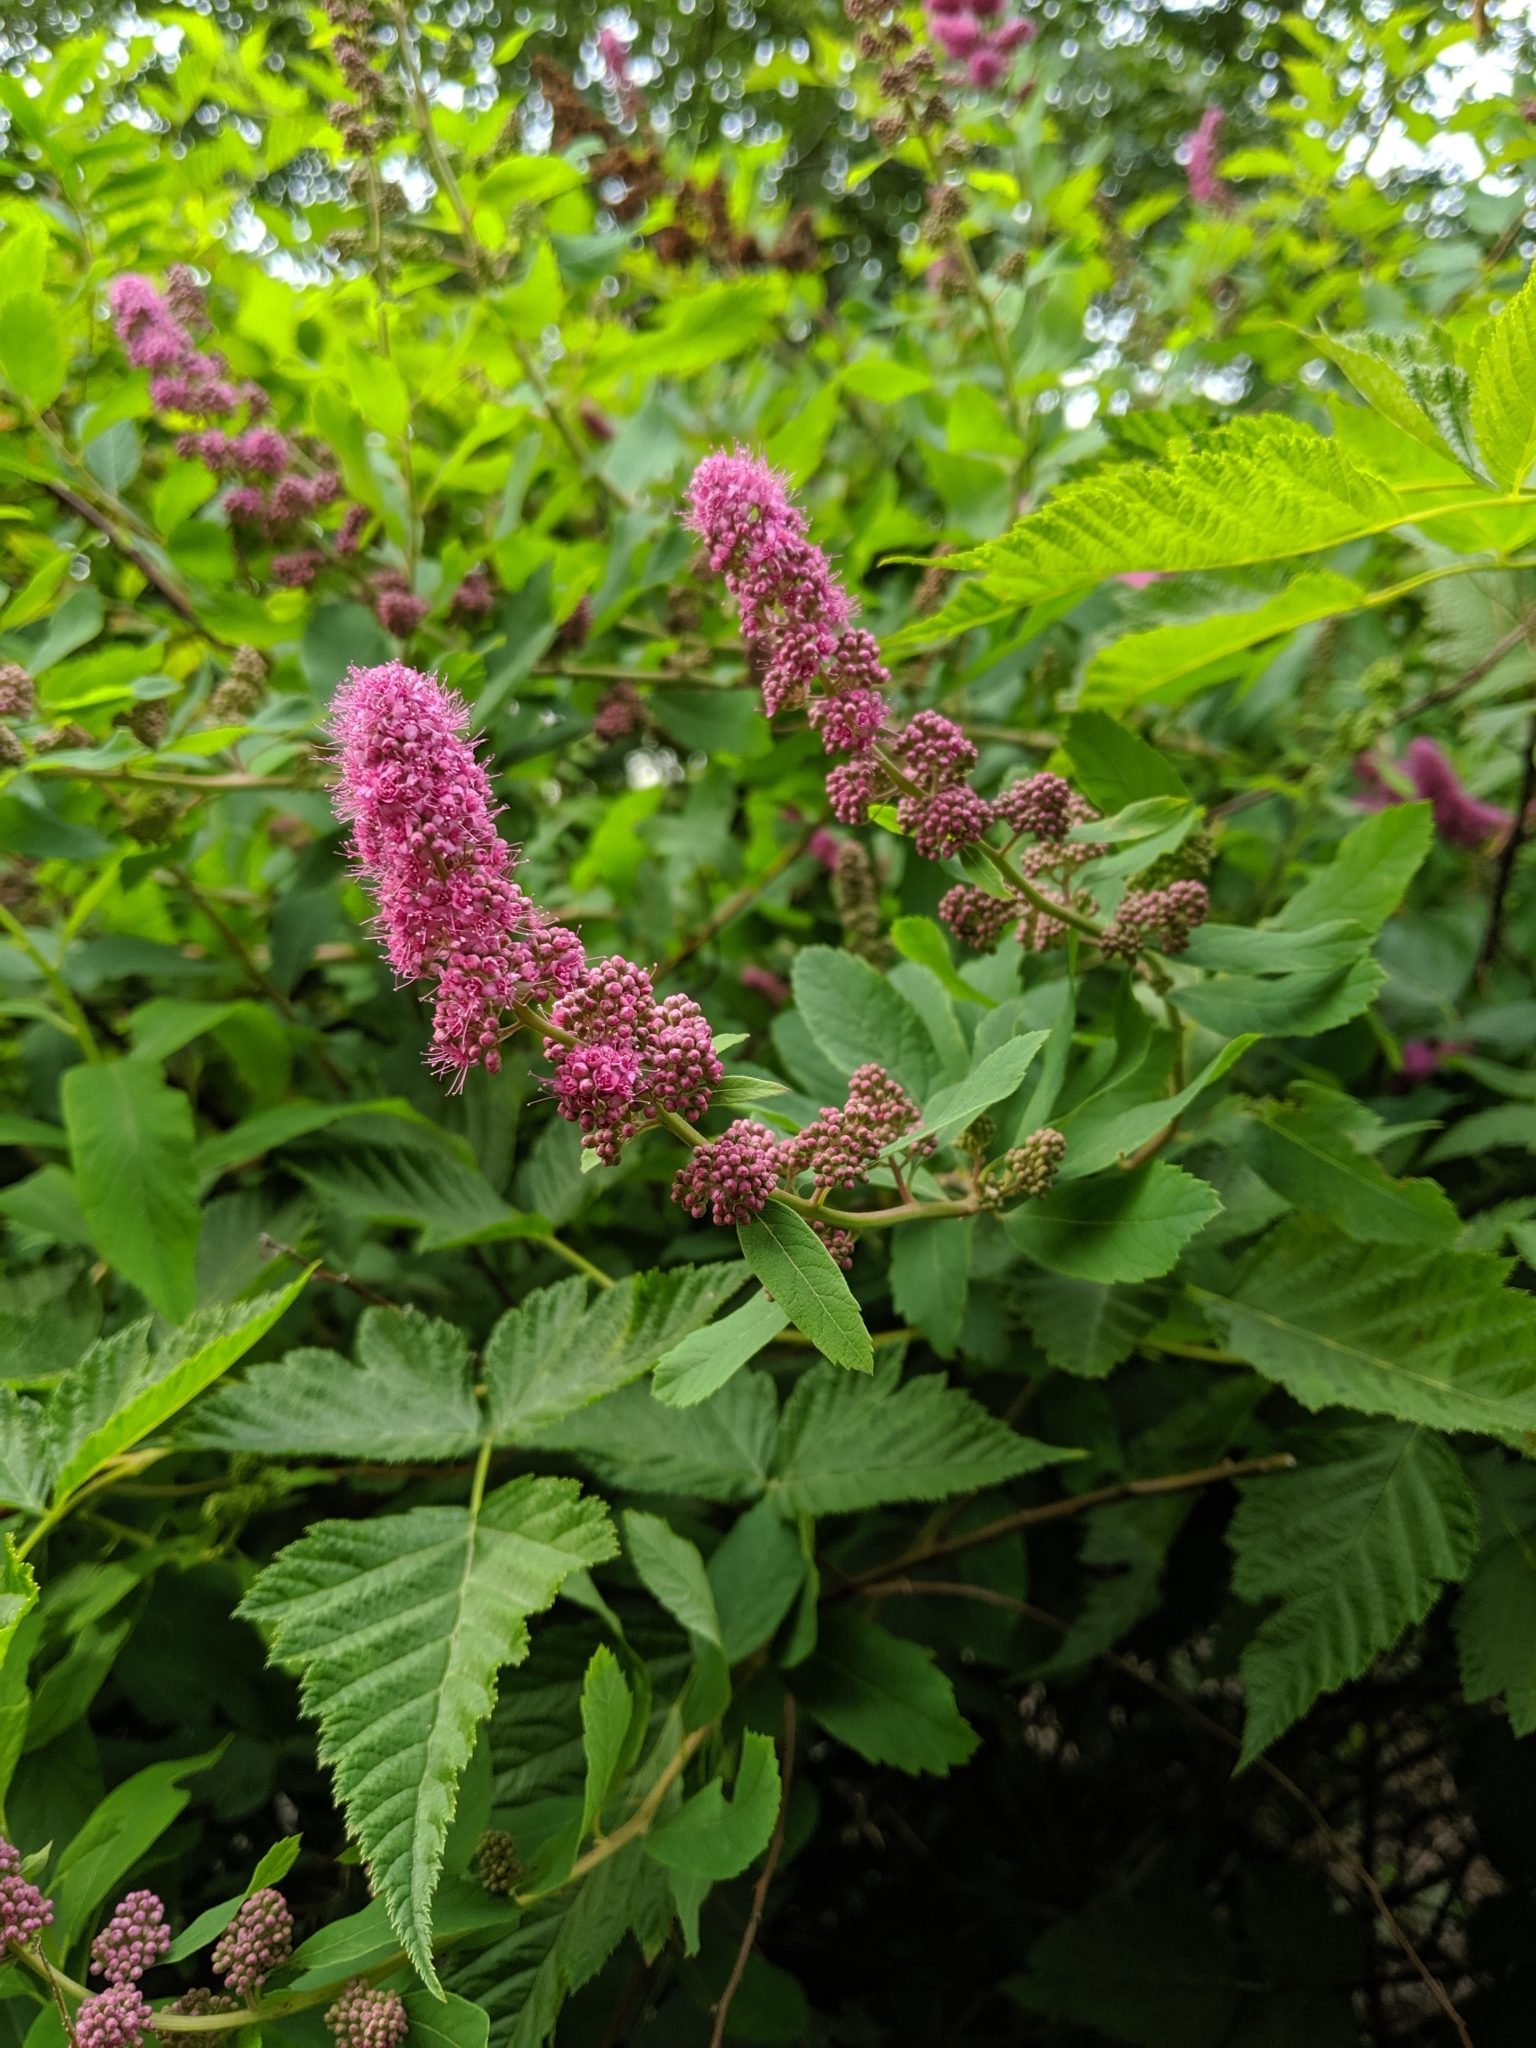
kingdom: Plantae
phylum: Tracheophyta
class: Magnoliopsida
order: Rosales
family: Rosaceae
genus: Spiraea
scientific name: Spiraea douglasii
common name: Steeplebush
